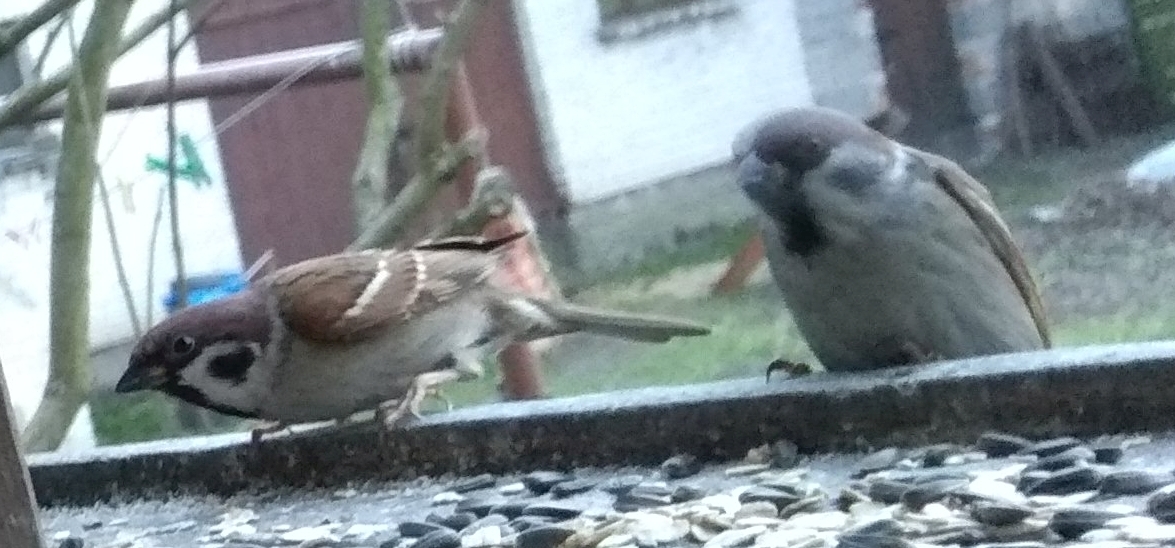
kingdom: Animalia
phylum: Chordata
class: Aves
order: Passeriformes
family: Passeridae
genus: Passer
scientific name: Passer montanus
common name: Eurasian tree sparrow
